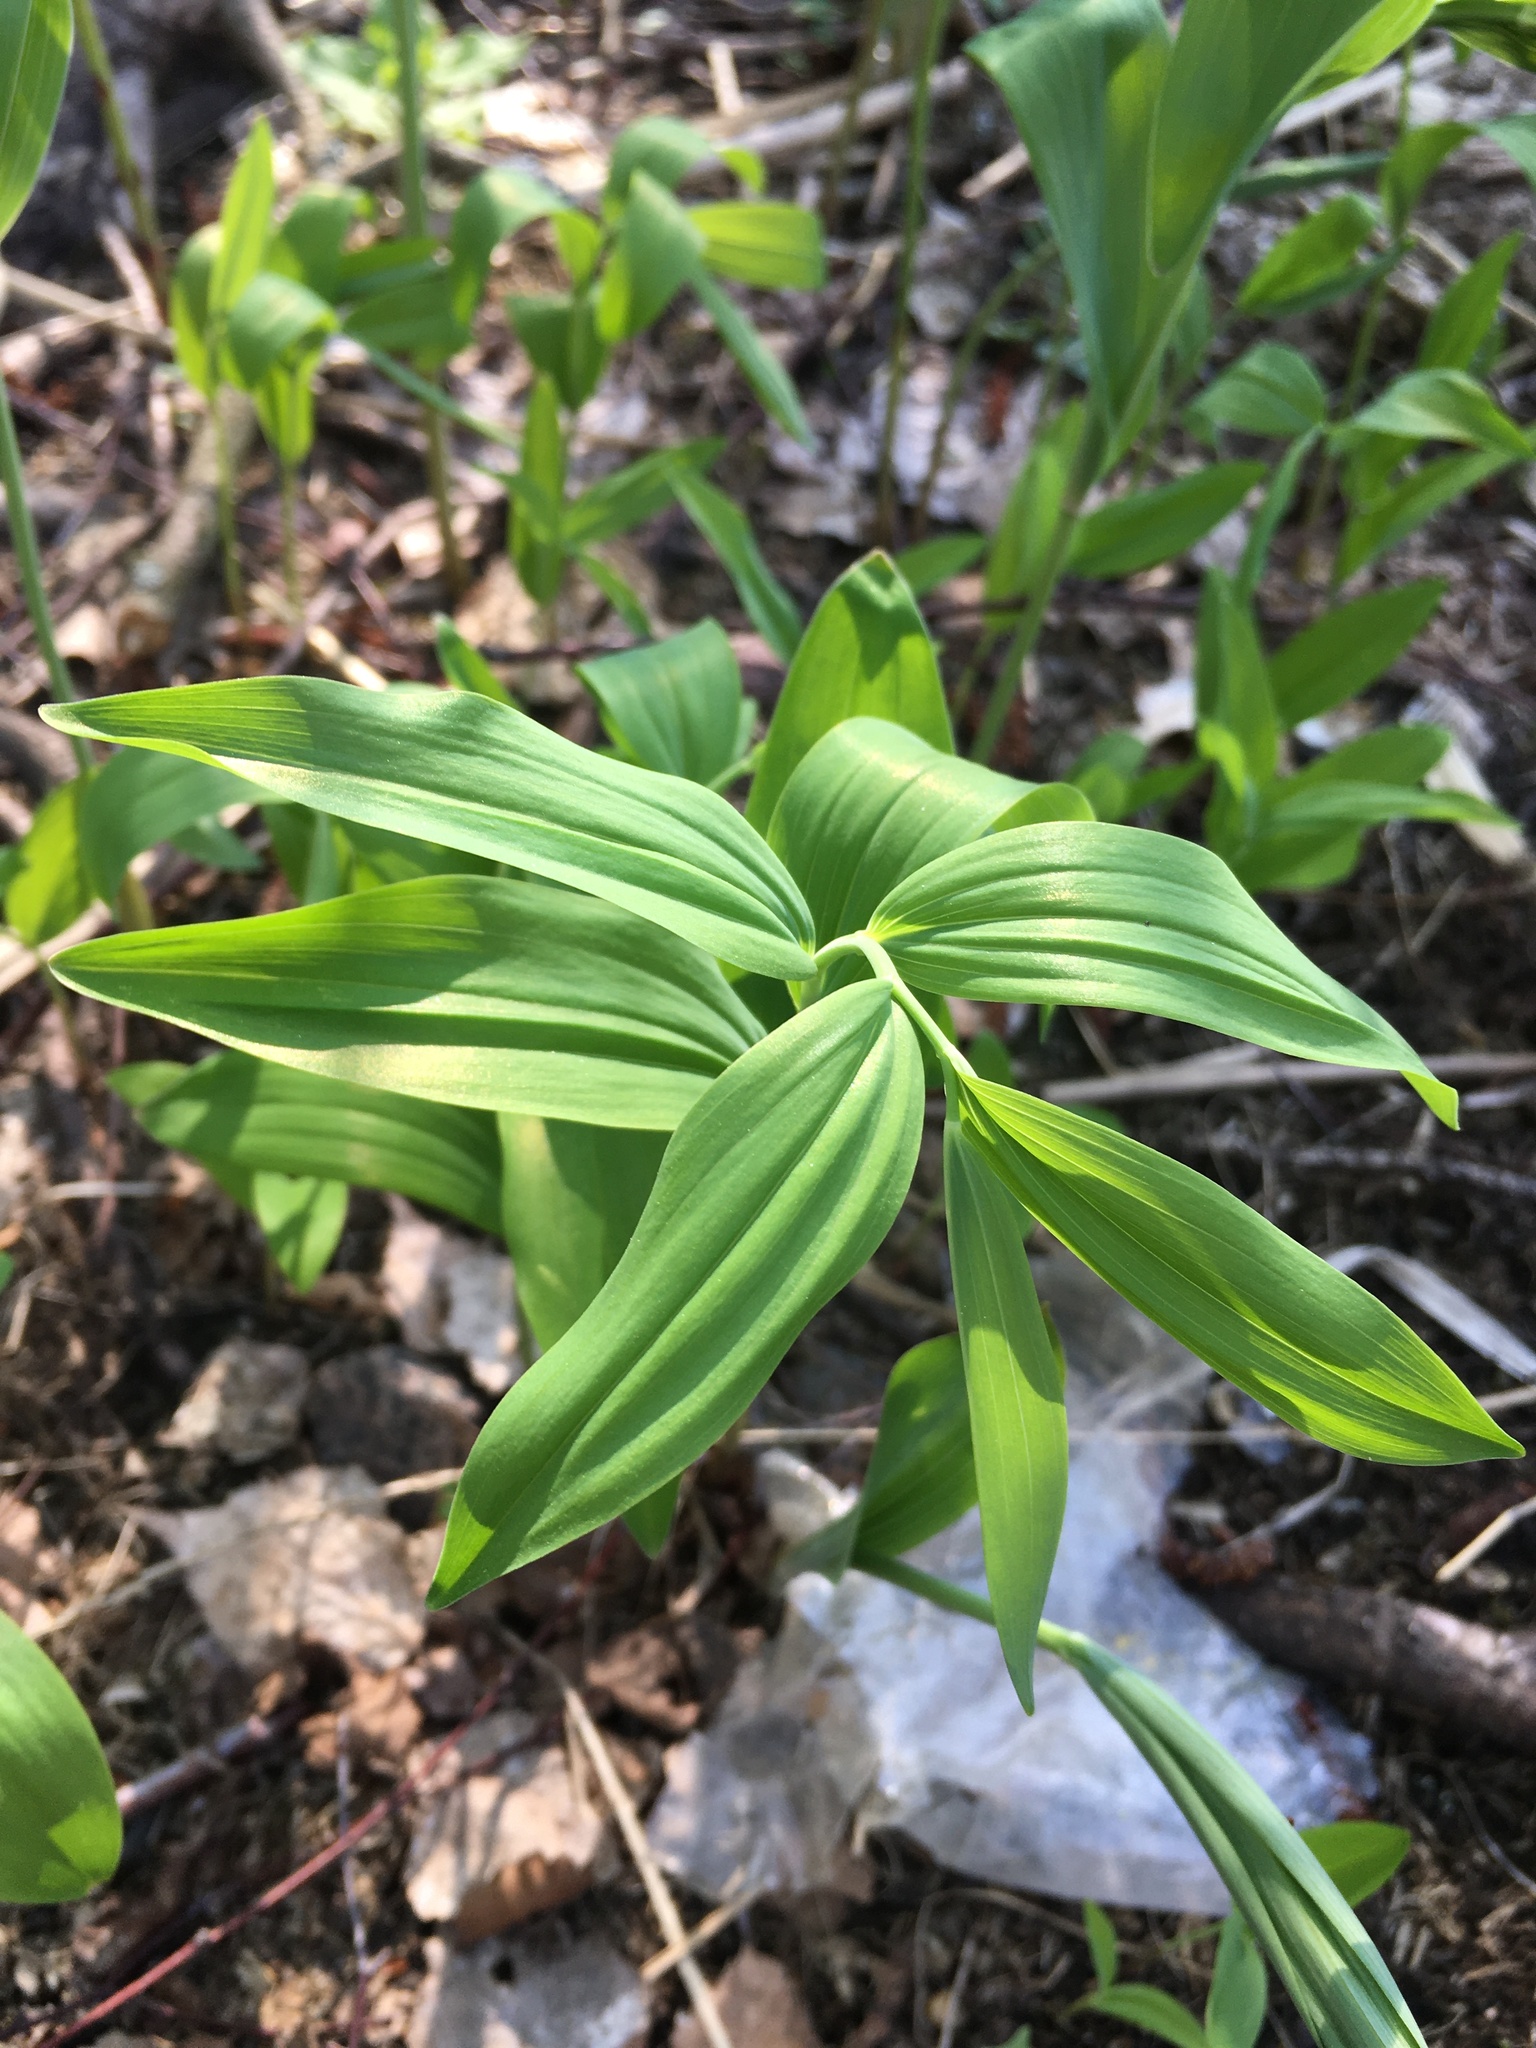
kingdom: Plantae
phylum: Tracheophyta
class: Liliopsida
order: Asparagales
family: Asparagaceae
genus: Polygonatum
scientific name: Polygonatum odoratum
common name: Angular solomon's-seal
